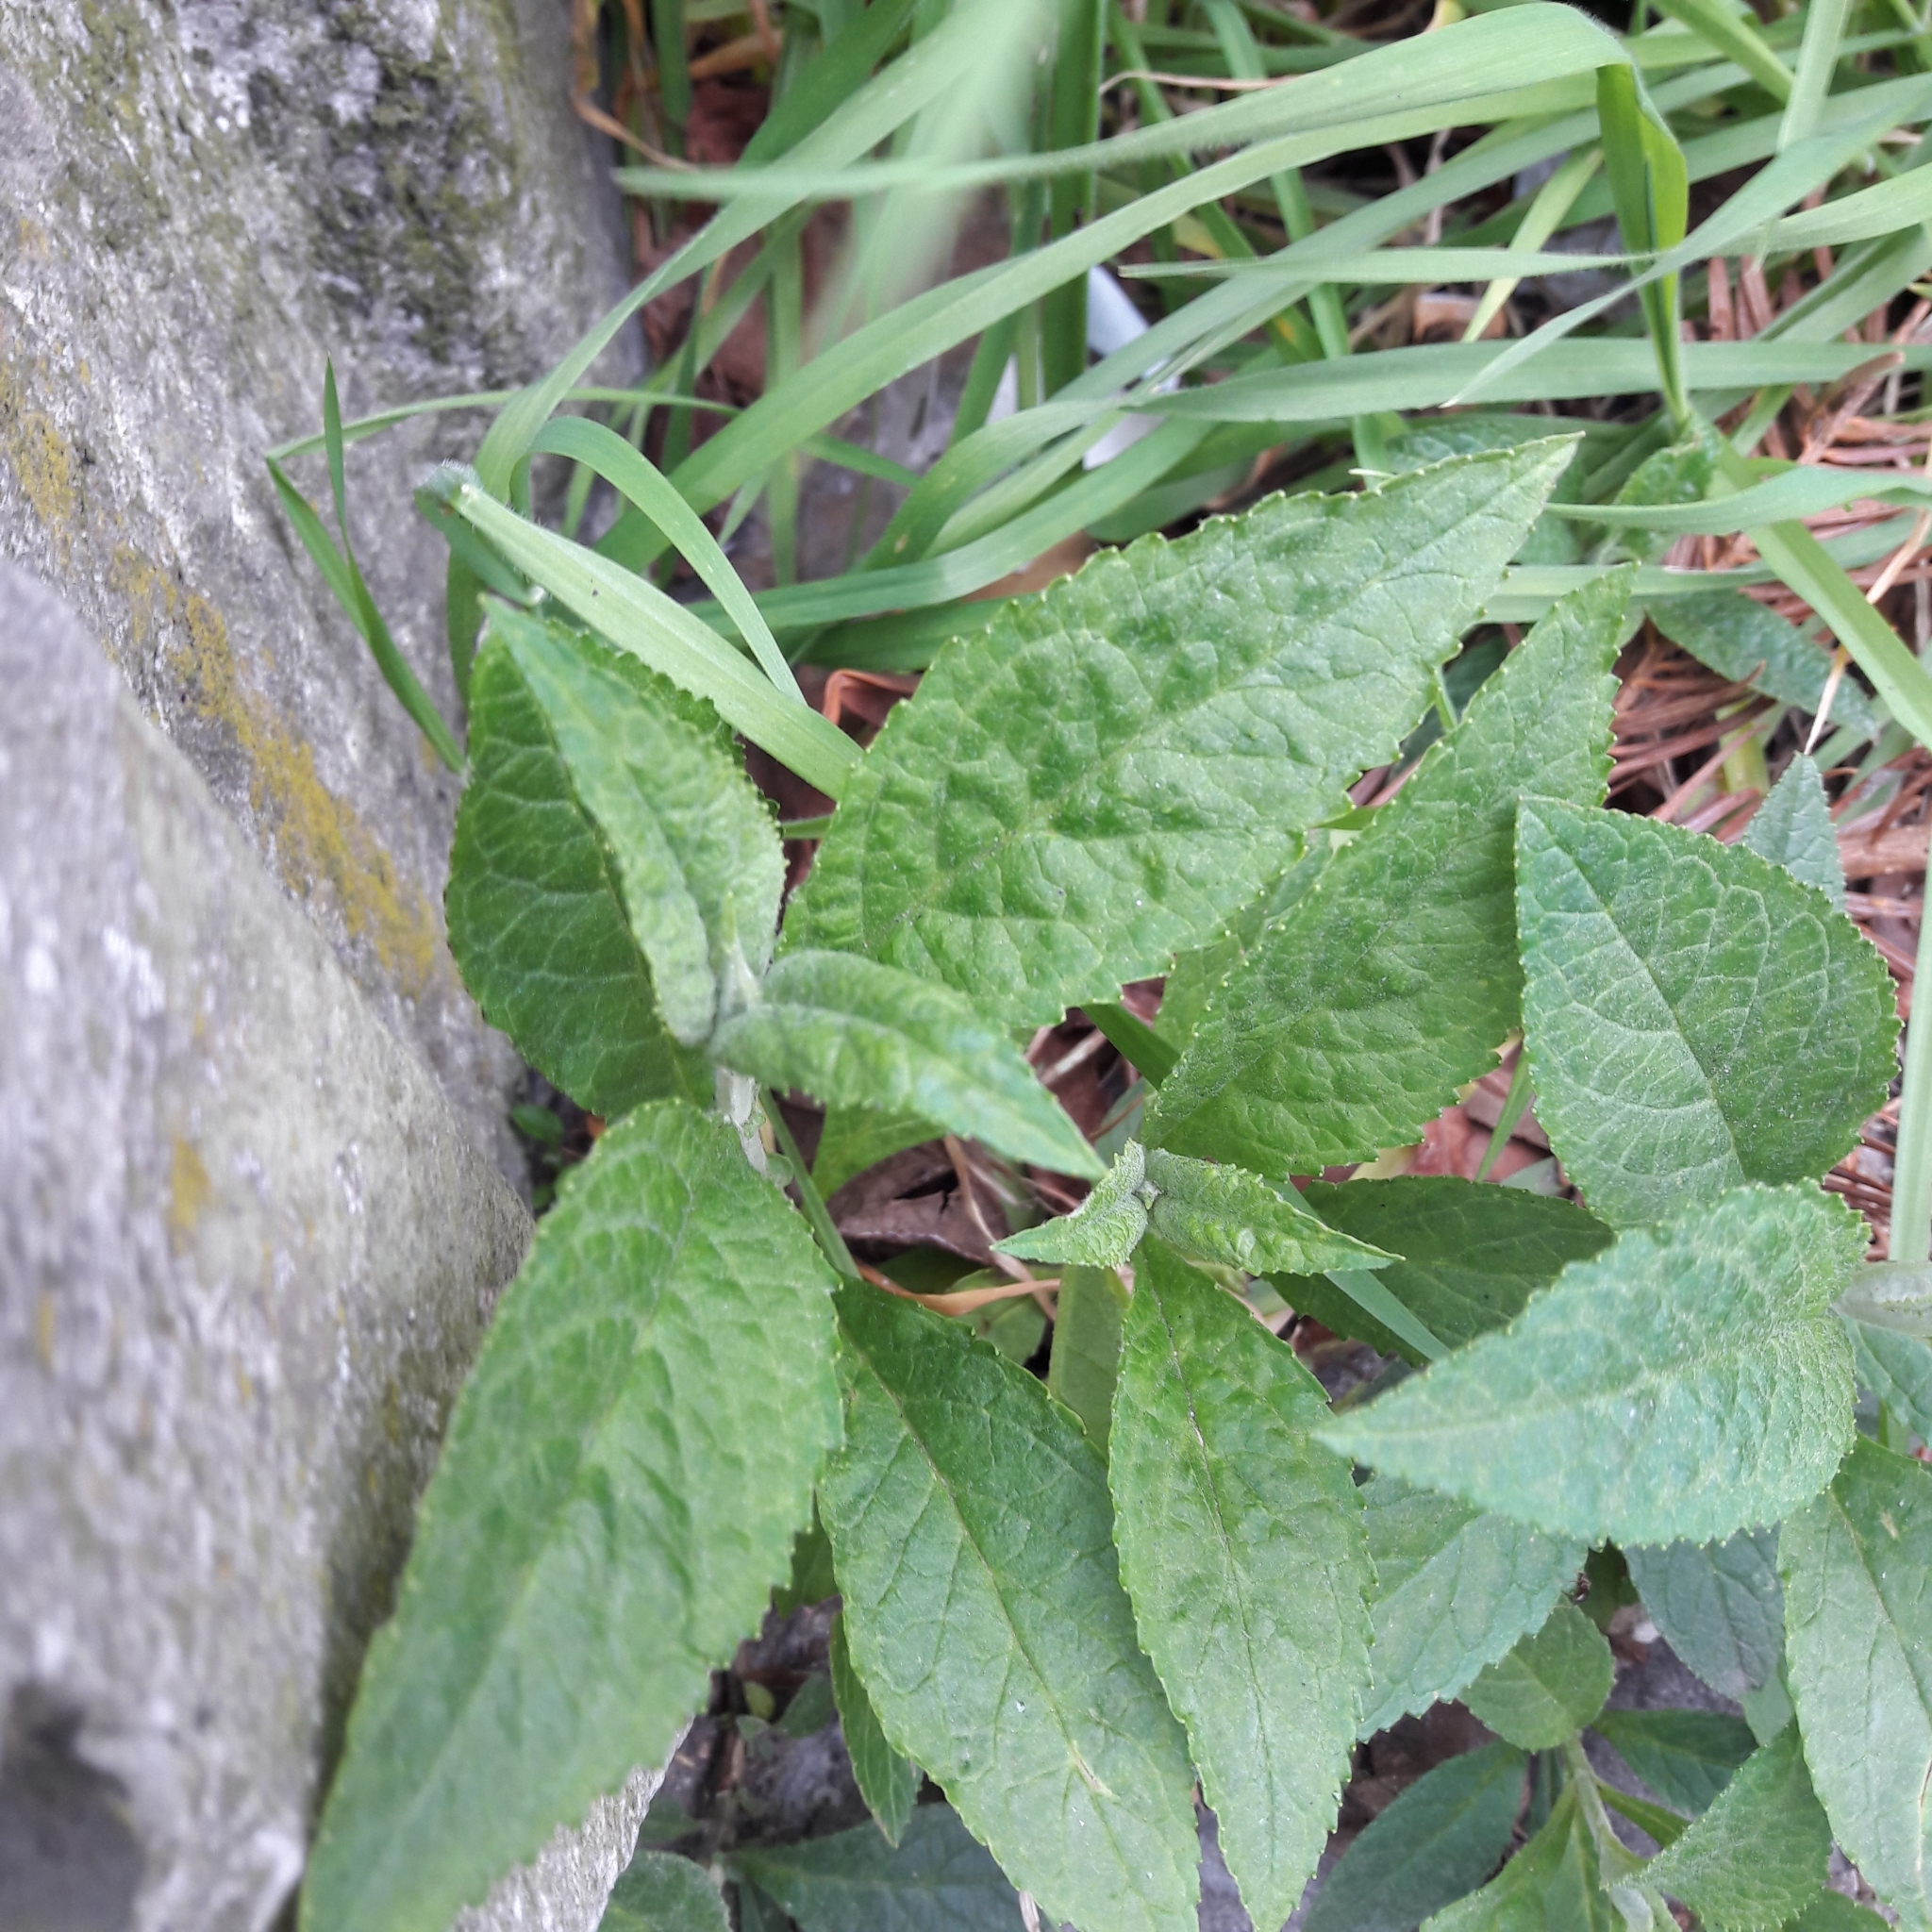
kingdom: Plantae
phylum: Tracheophyta
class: Magnoliopsida
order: Lamiales
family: Scrophulariaceae
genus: Buddleja
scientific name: Buddleja davidii
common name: Butterfly-bush
